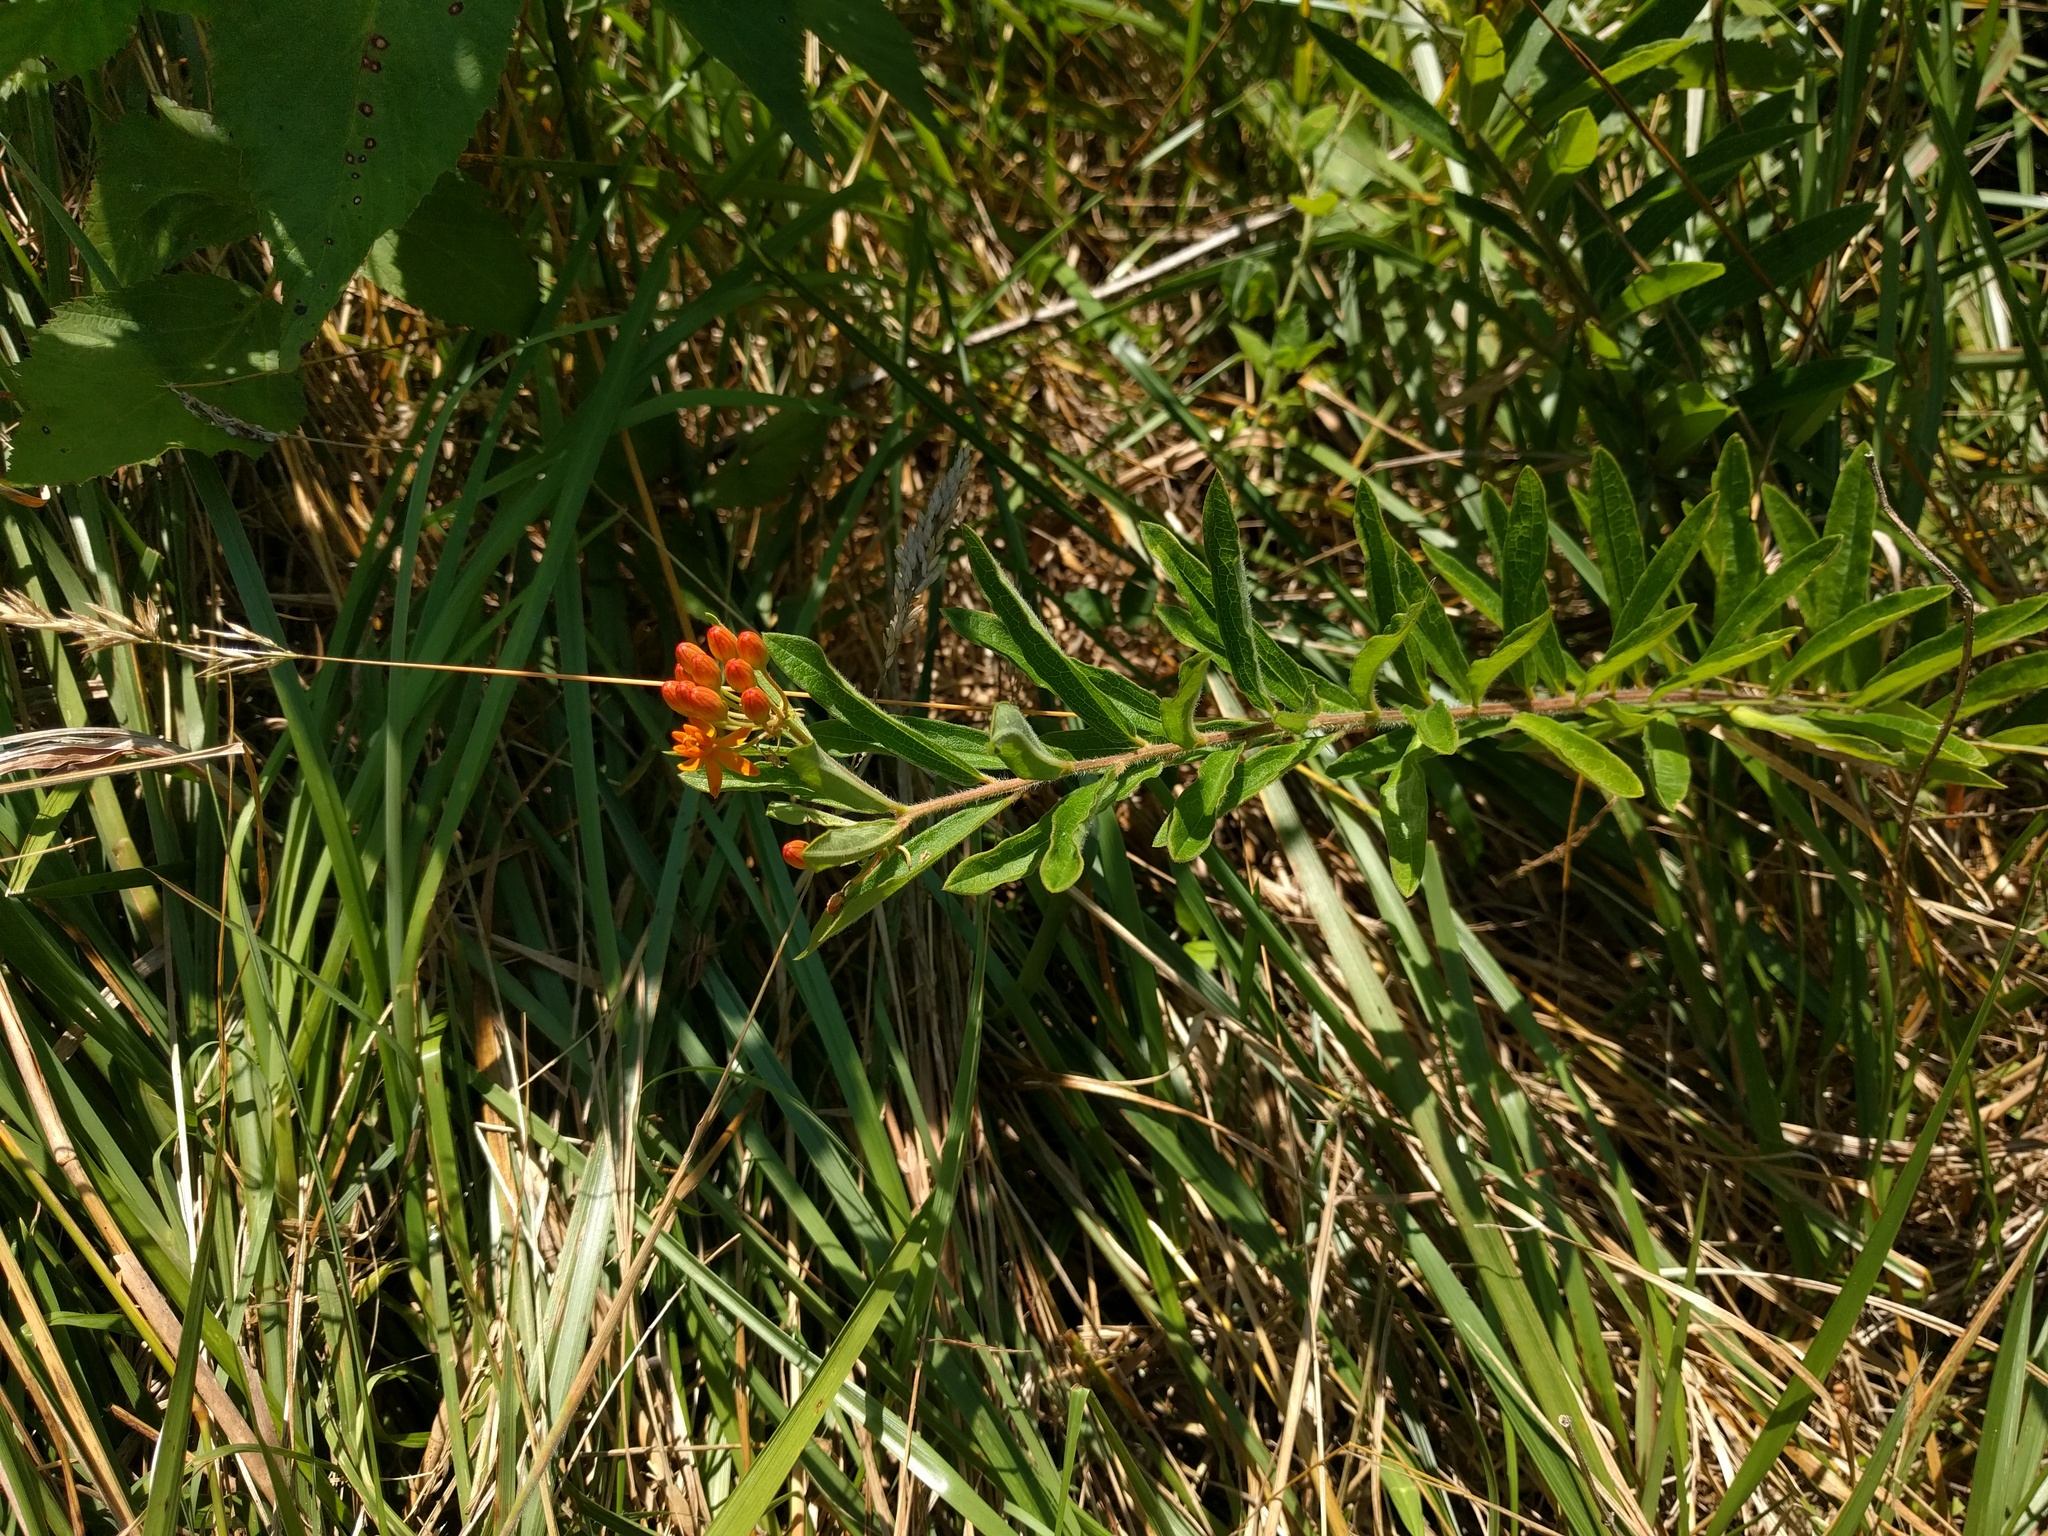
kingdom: Plantae
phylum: Tracheophyta
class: Magnoliopsida
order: Gentianales
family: Apocynaceae
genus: Asclepias
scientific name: Asclepias tuberosa
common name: Butterfly milkweed
